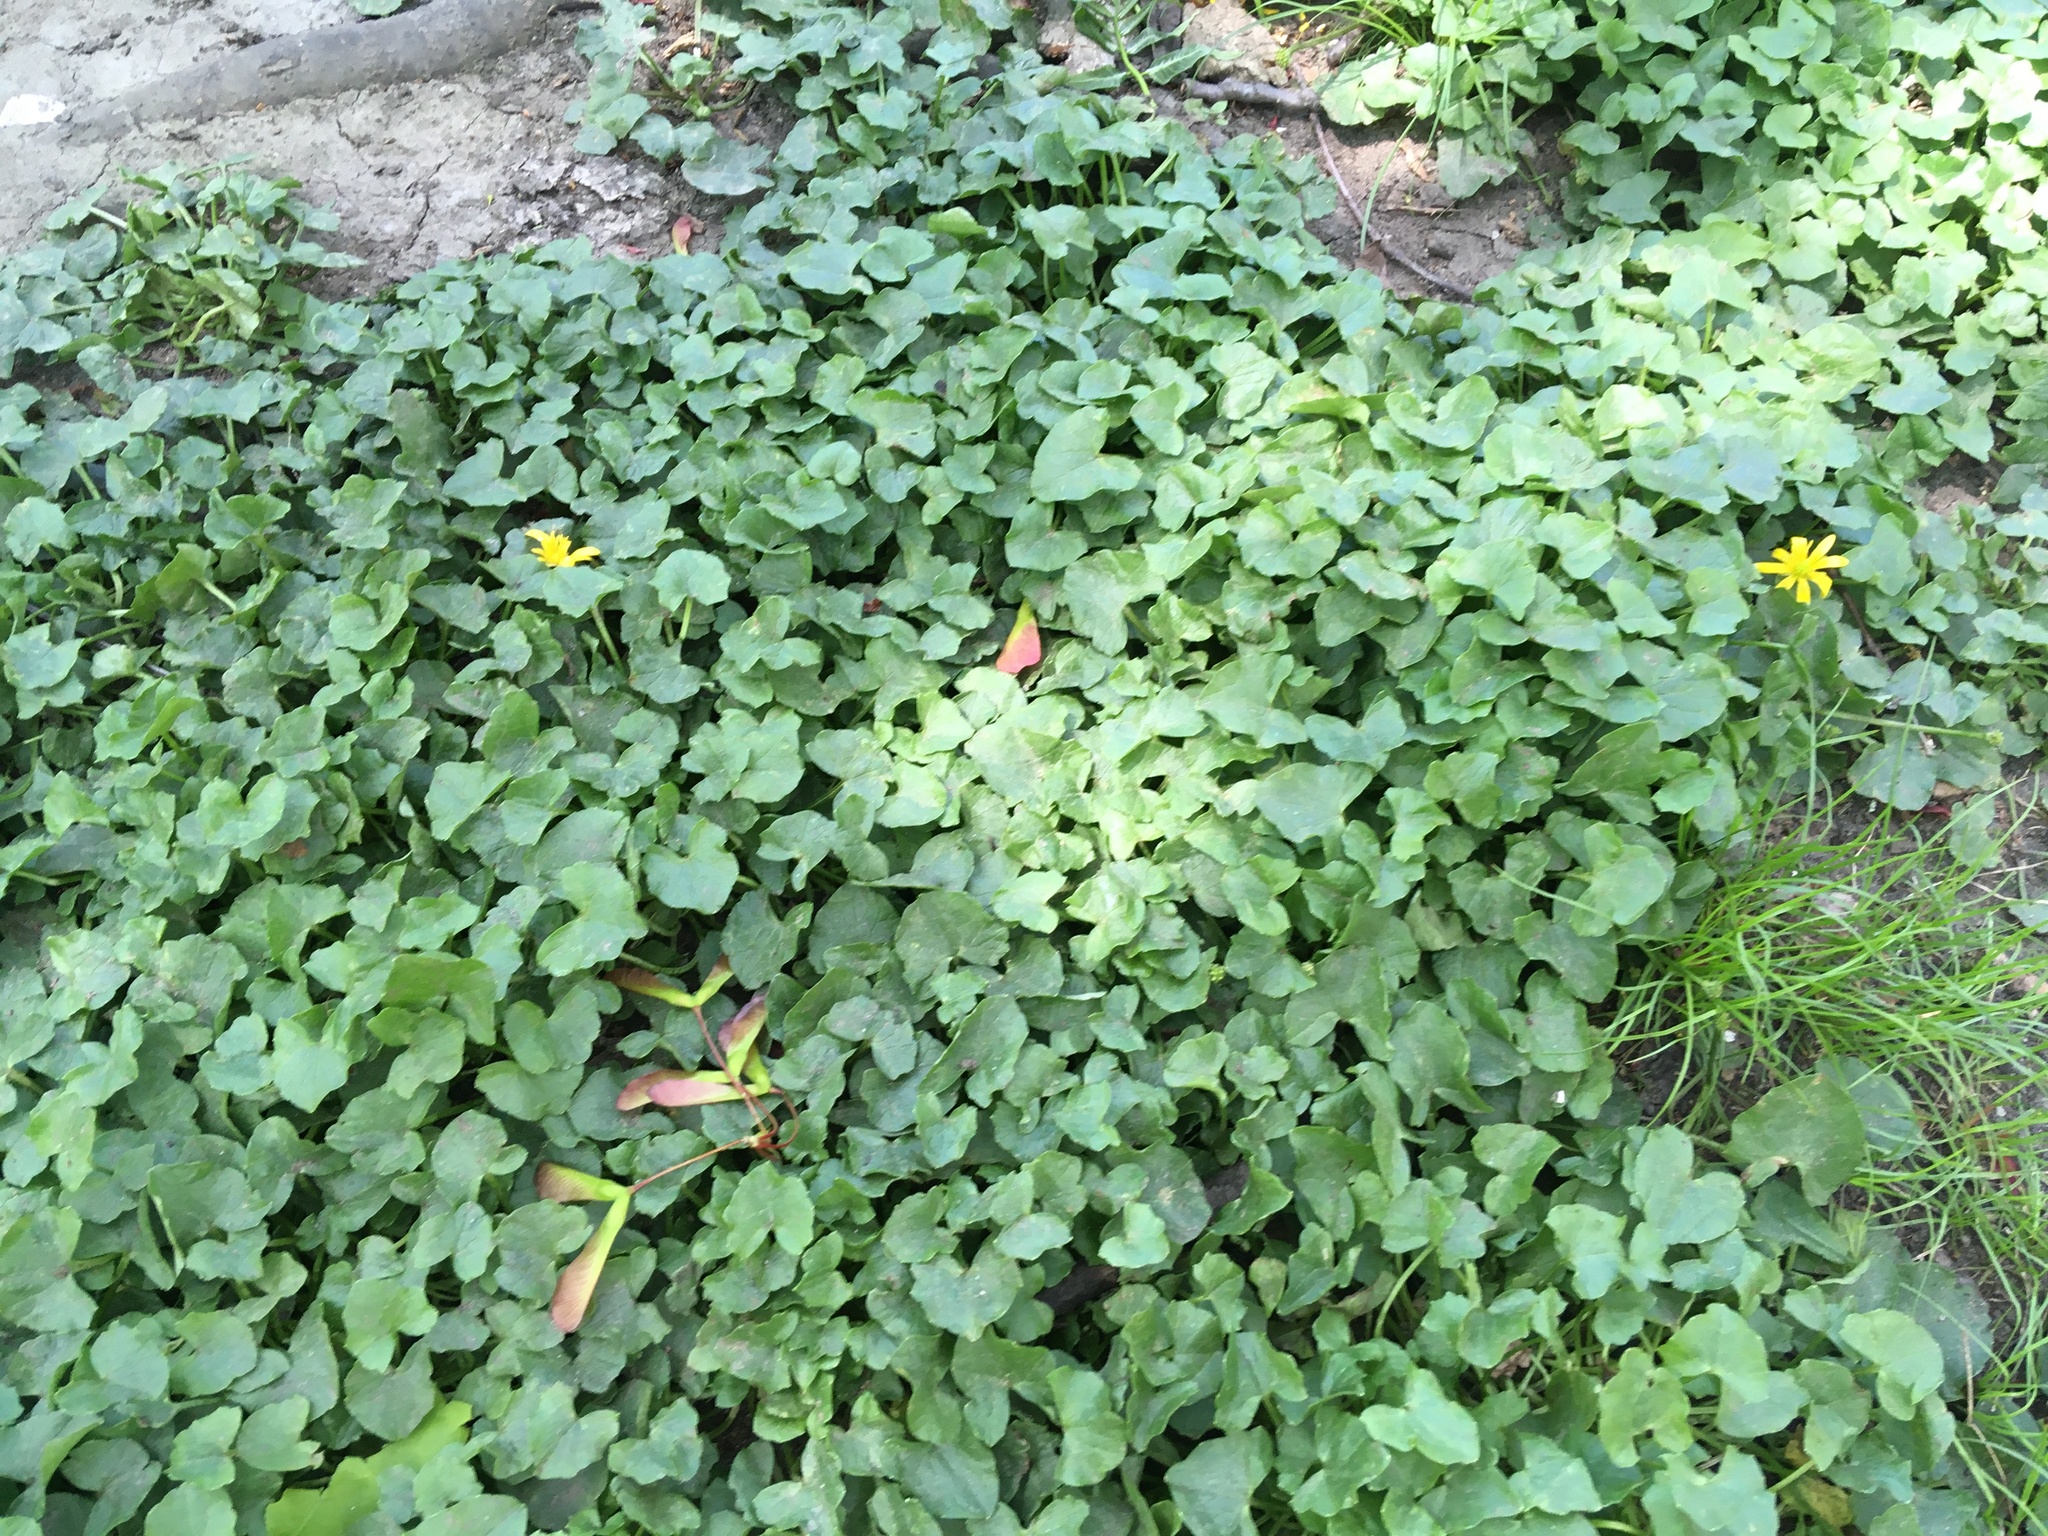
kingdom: Plantae
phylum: Tracheophyta
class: Magnoliopsida
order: Ranunculales
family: Ranunculaceae
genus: Ficaria
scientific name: Ficaria verna
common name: Lesser celandine
